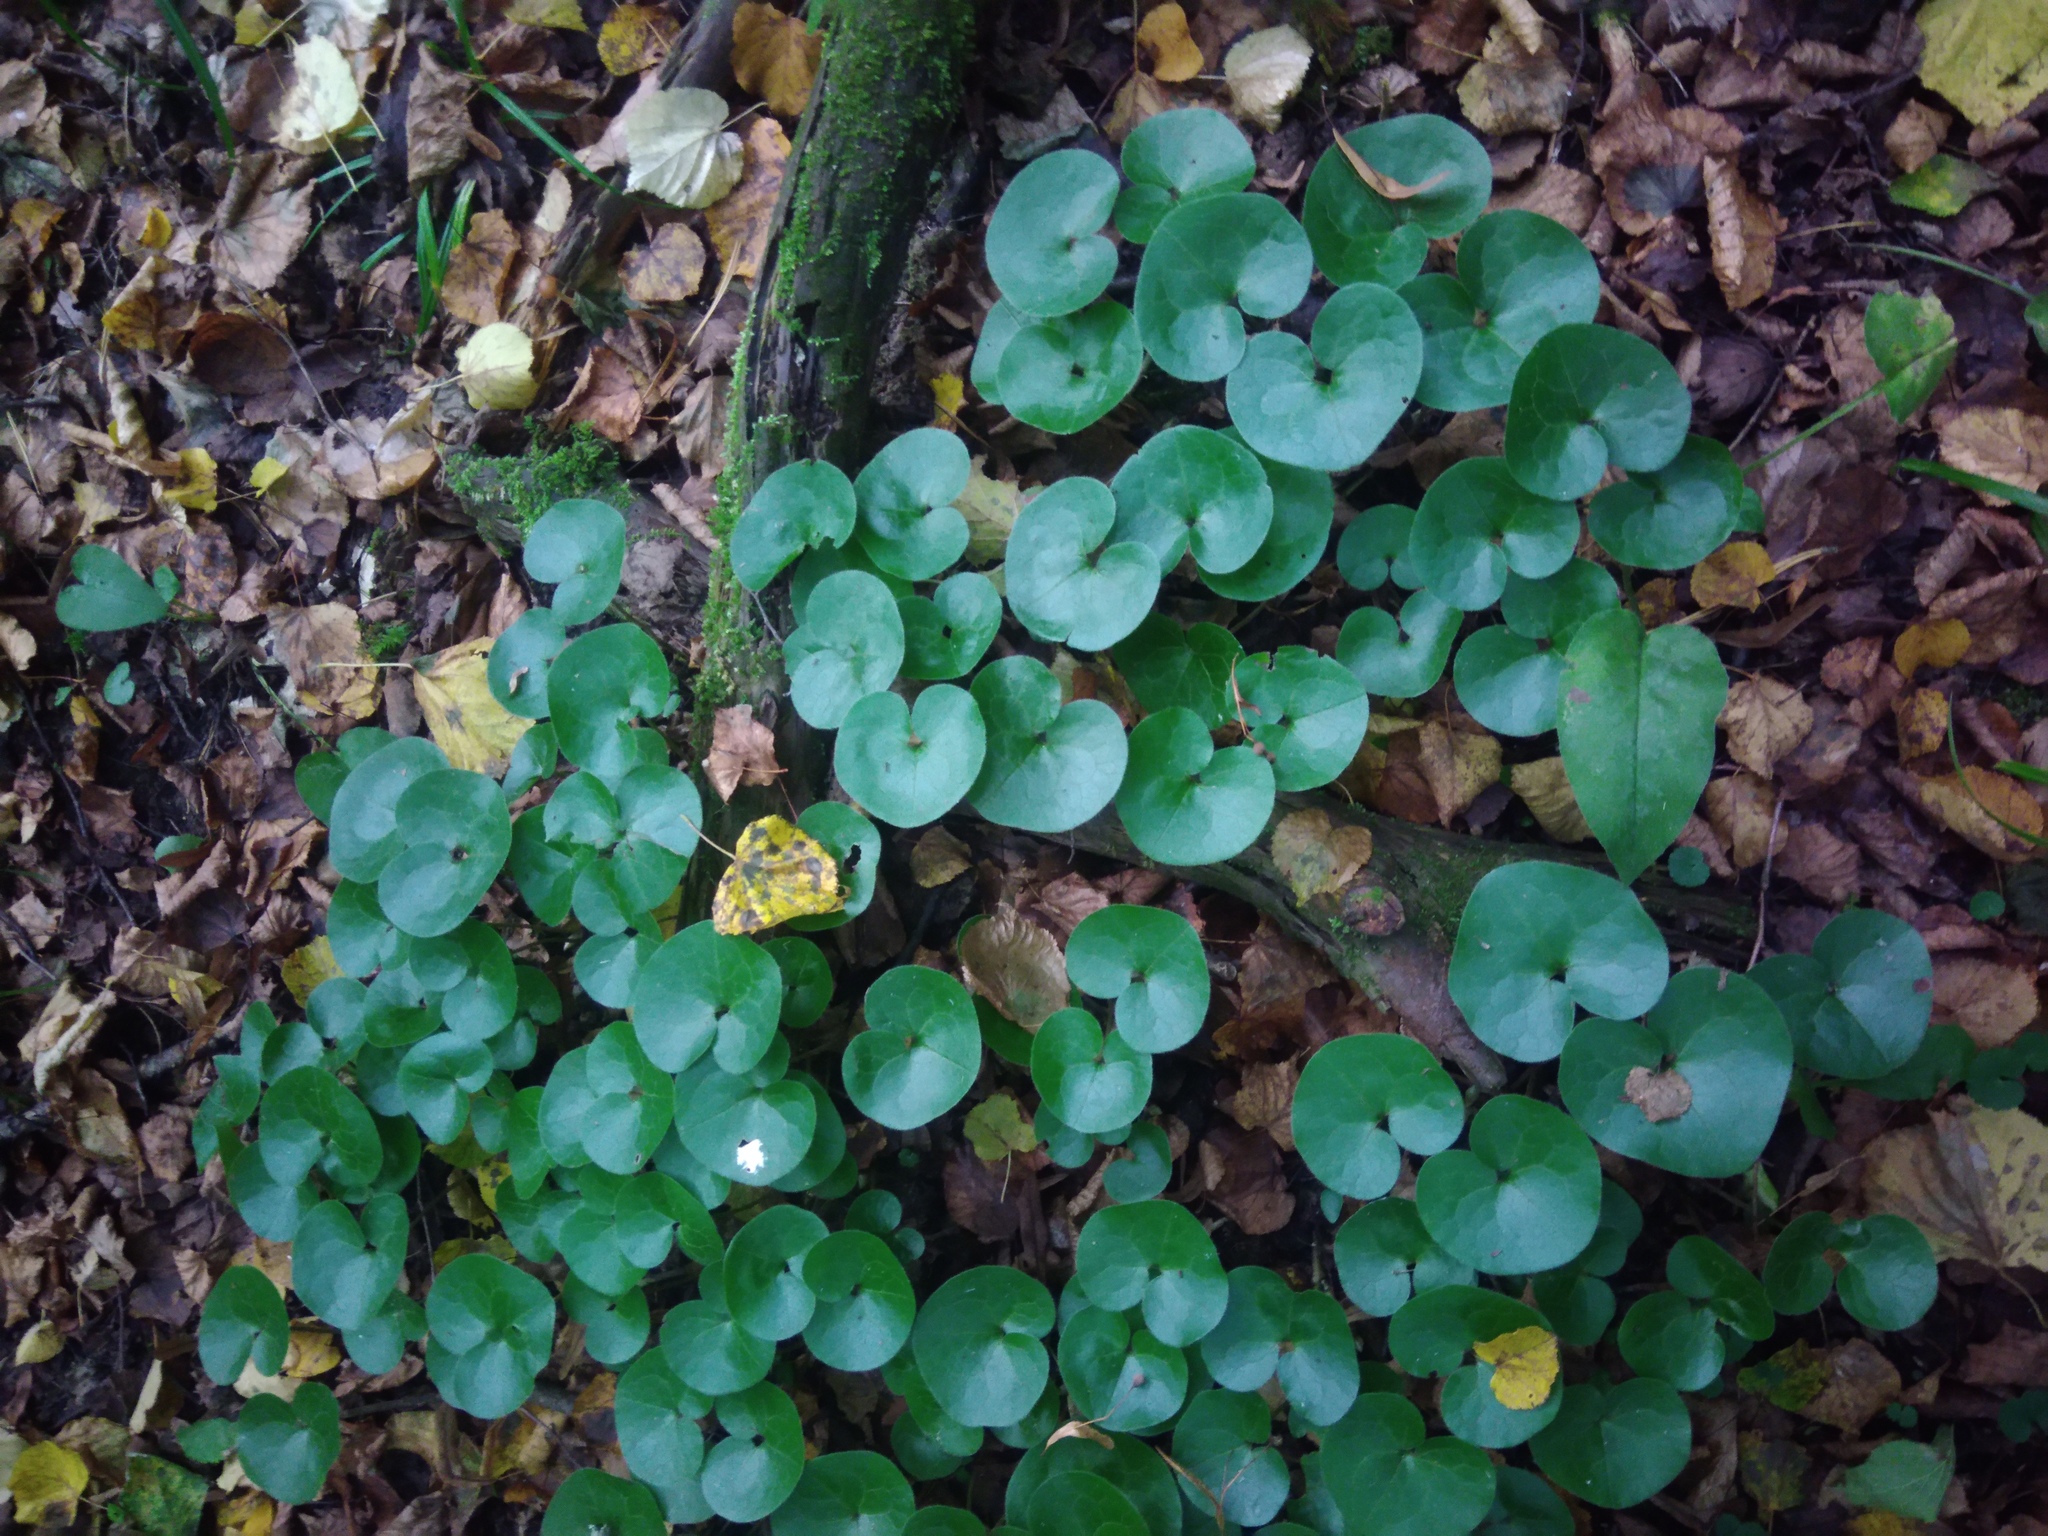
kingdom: Plantae
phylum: Tracheophyta
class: Magnoliopsida
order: Piperales
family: Aristolochiaceae
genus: Asarum
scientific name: Asarum europaeum
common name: Asarabacca
